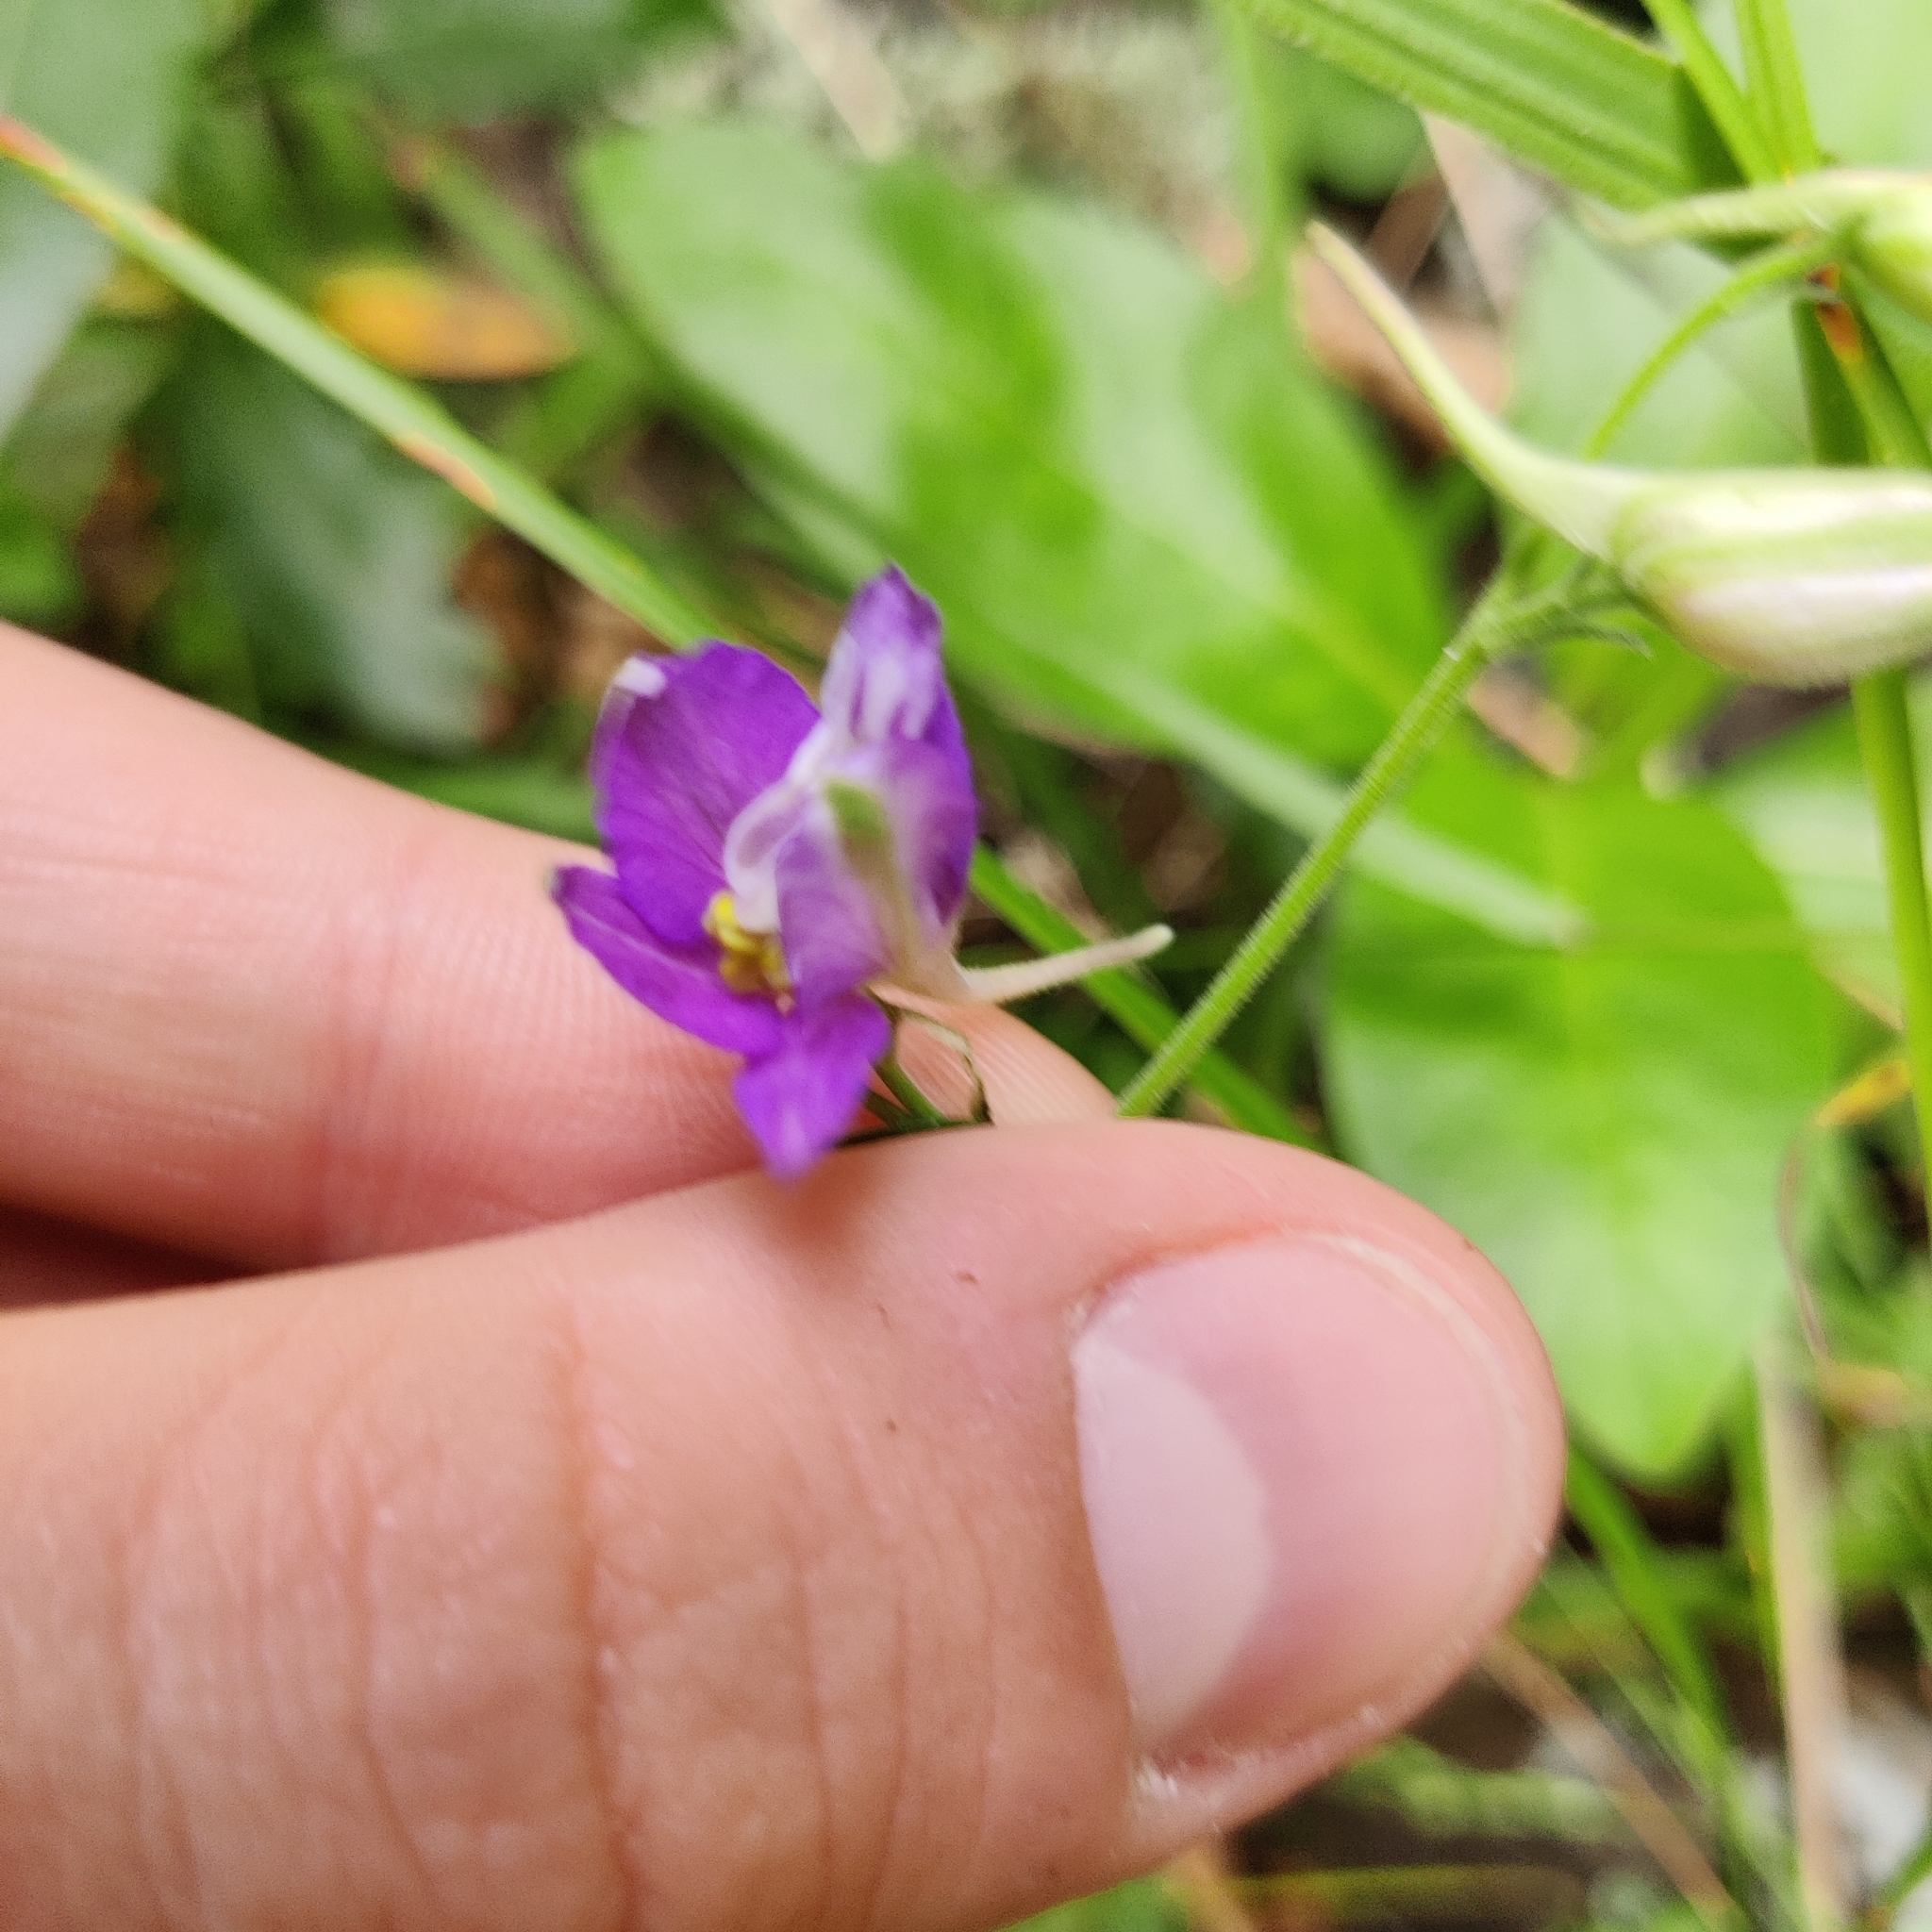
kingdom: Plantae
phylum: Tracheophyta
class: Magnoliopsida
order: Ranunculales
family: Ranunculaceae
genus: Delphinium
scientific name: Delphinium ajacis
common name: Doubtful knight's-spur
